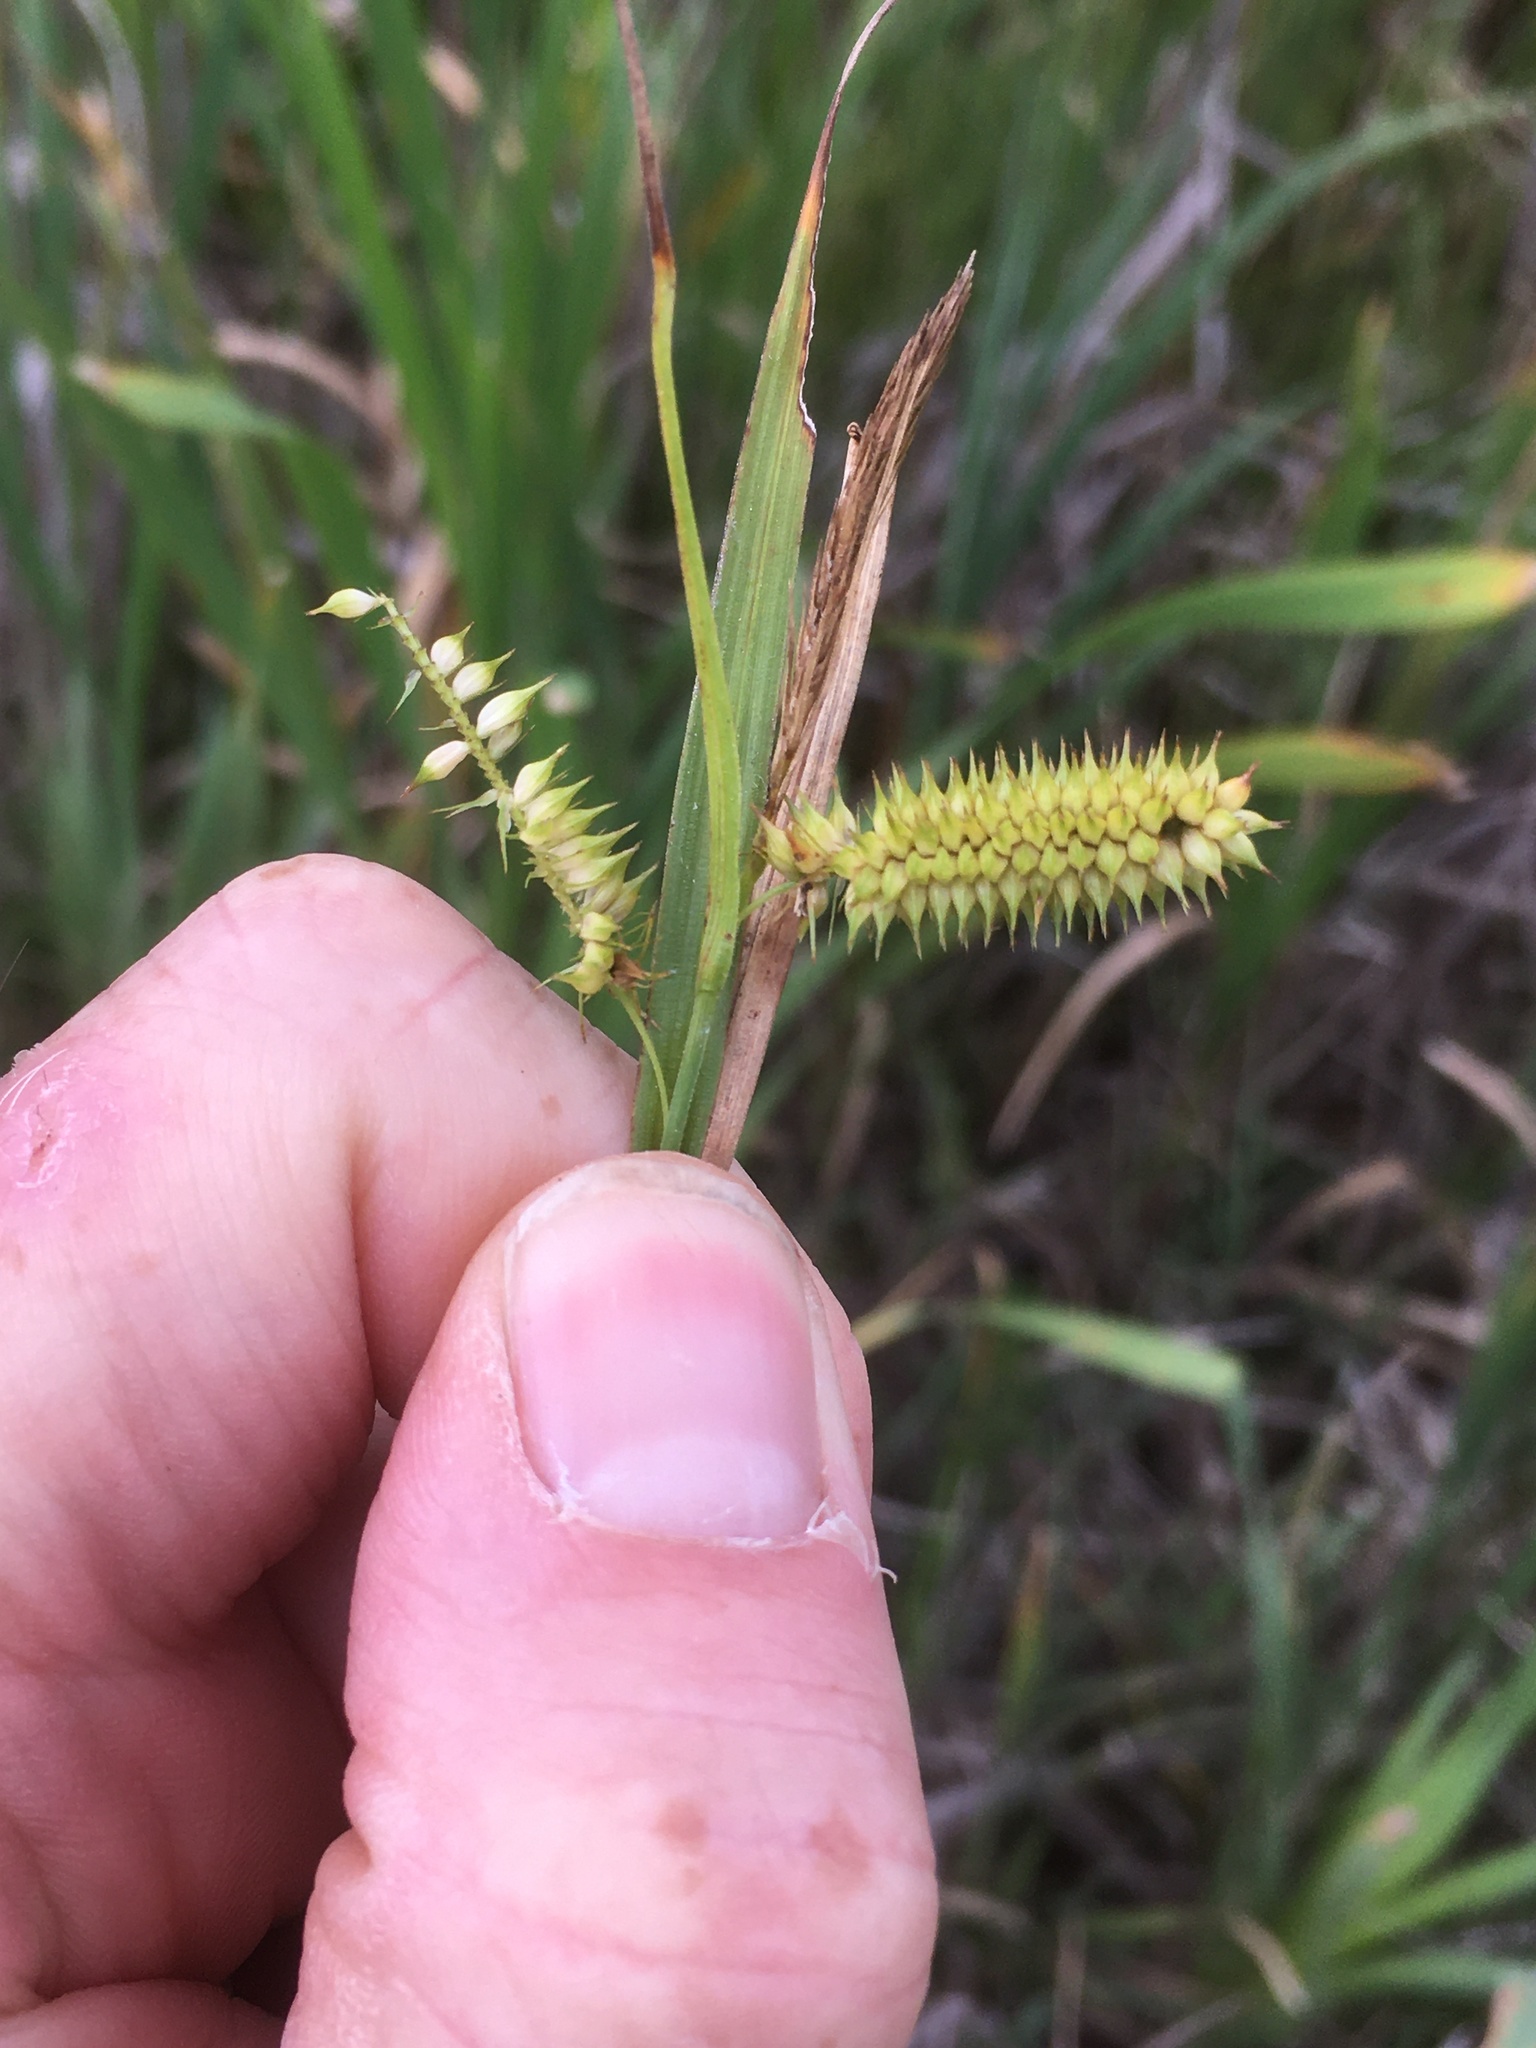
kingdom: Plantae
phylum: Tracheophyta
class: Liliopsida
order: Poales
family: Cyperaceae
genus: Carex
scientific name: Carex hystericina
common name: Bottlebrush sedge
